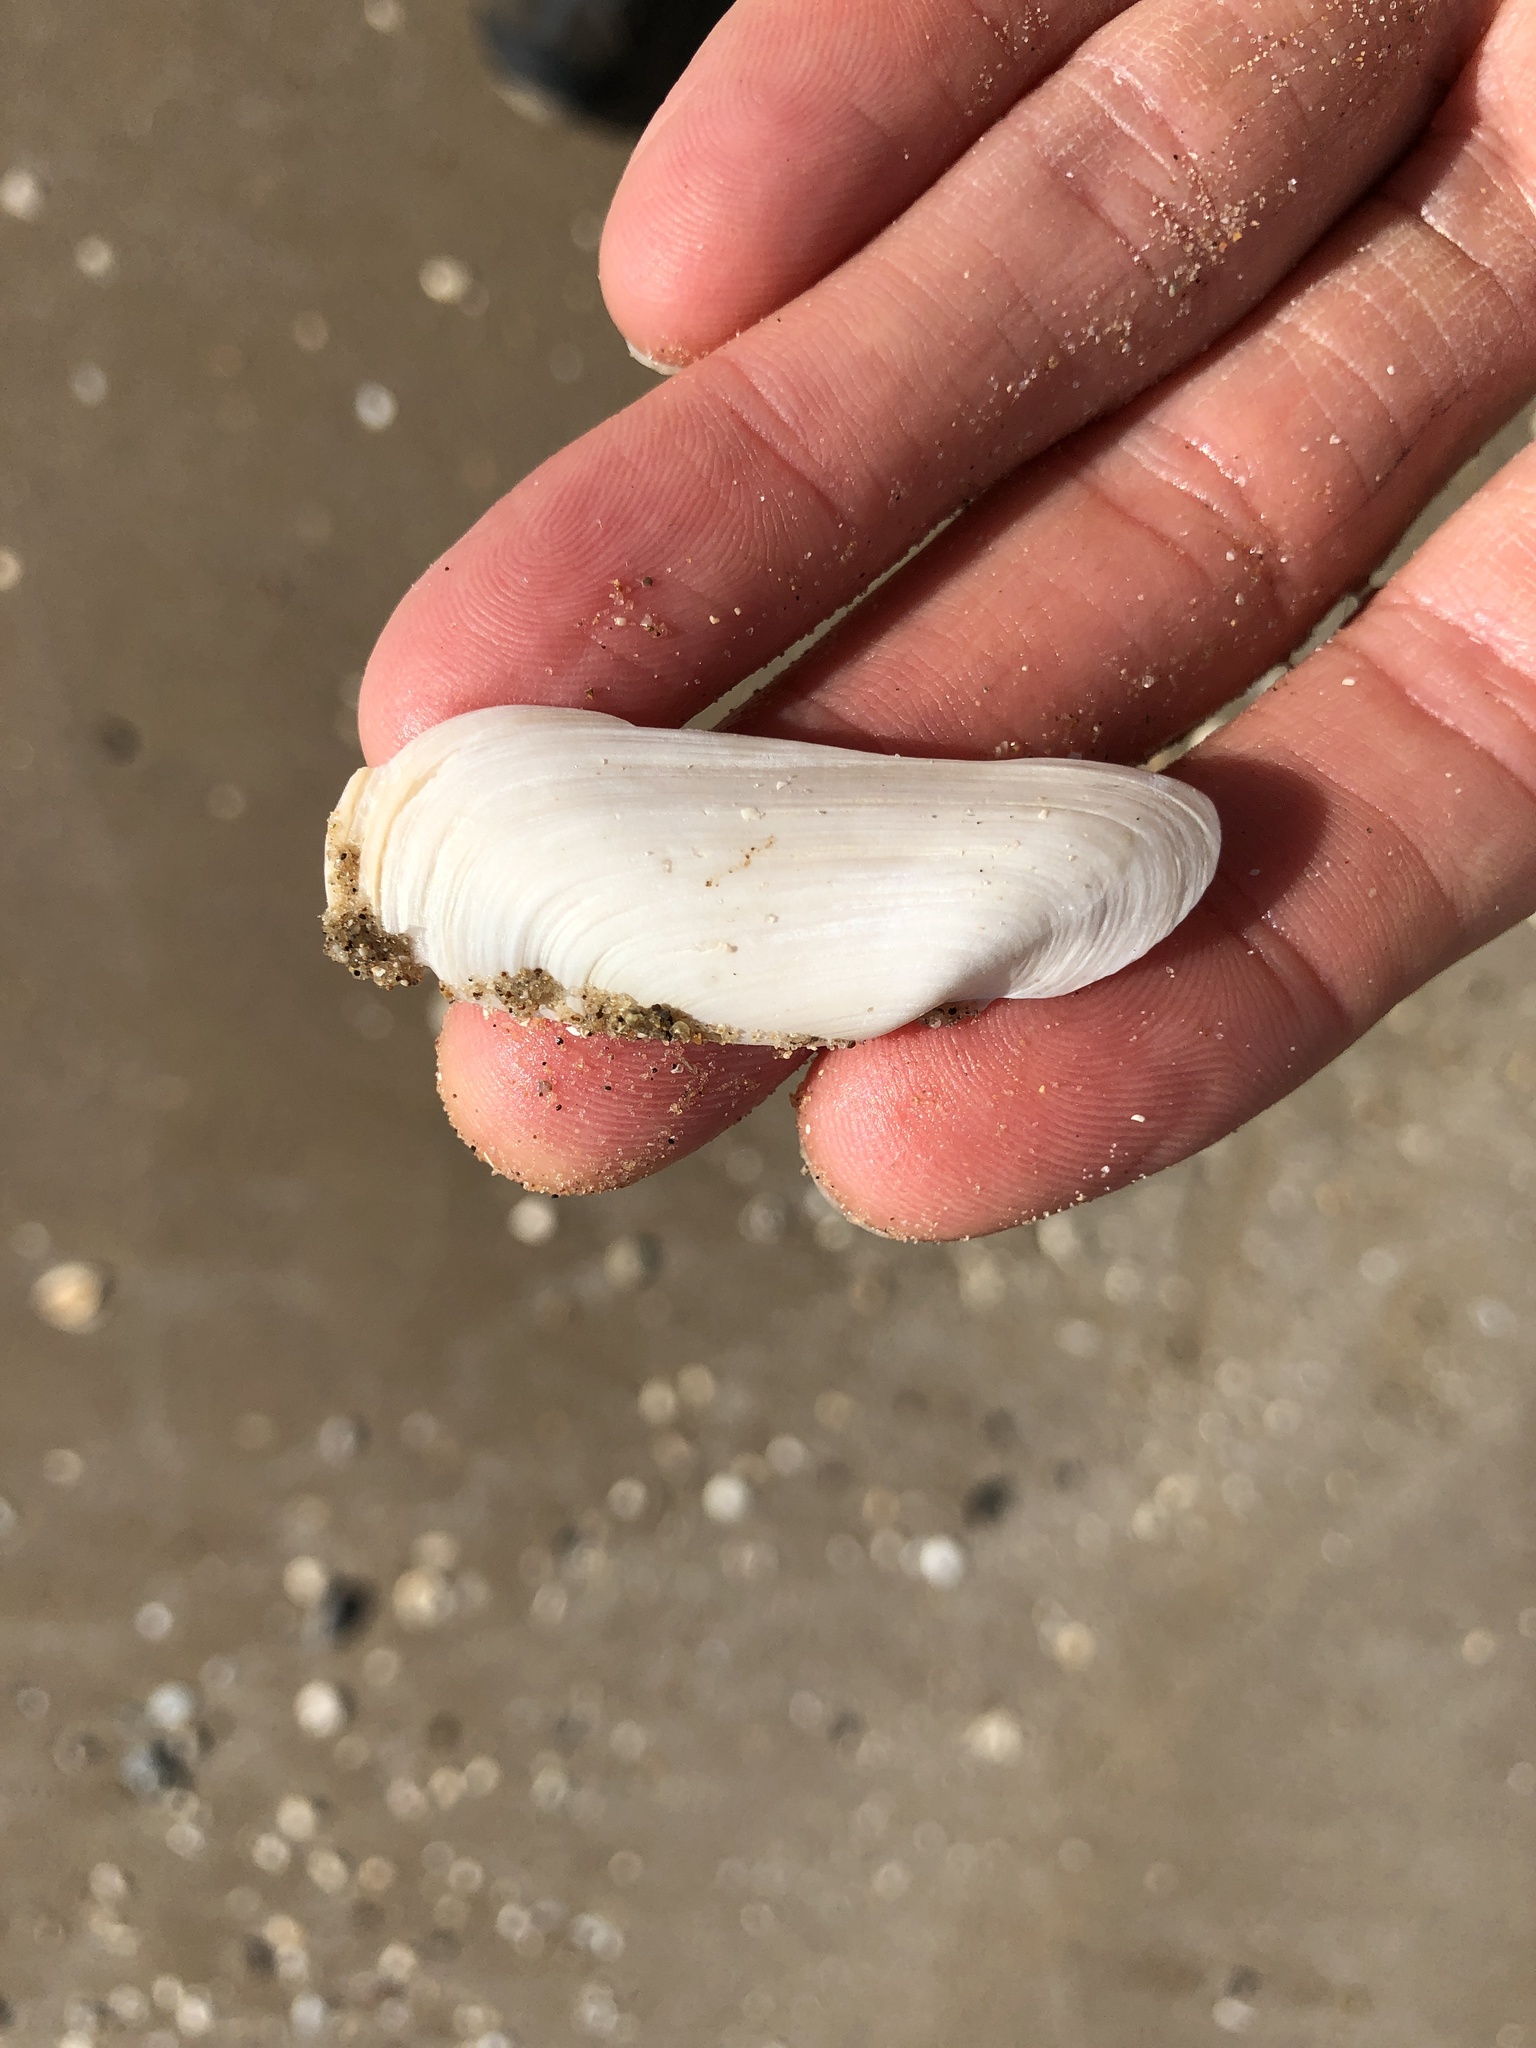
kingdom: Animalia
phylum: Mollusca
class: Bivalvia
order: Cardiida
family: Solecurtidae
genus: Tagelus
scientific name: Tagelus plebeius
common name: Stout tagelus
